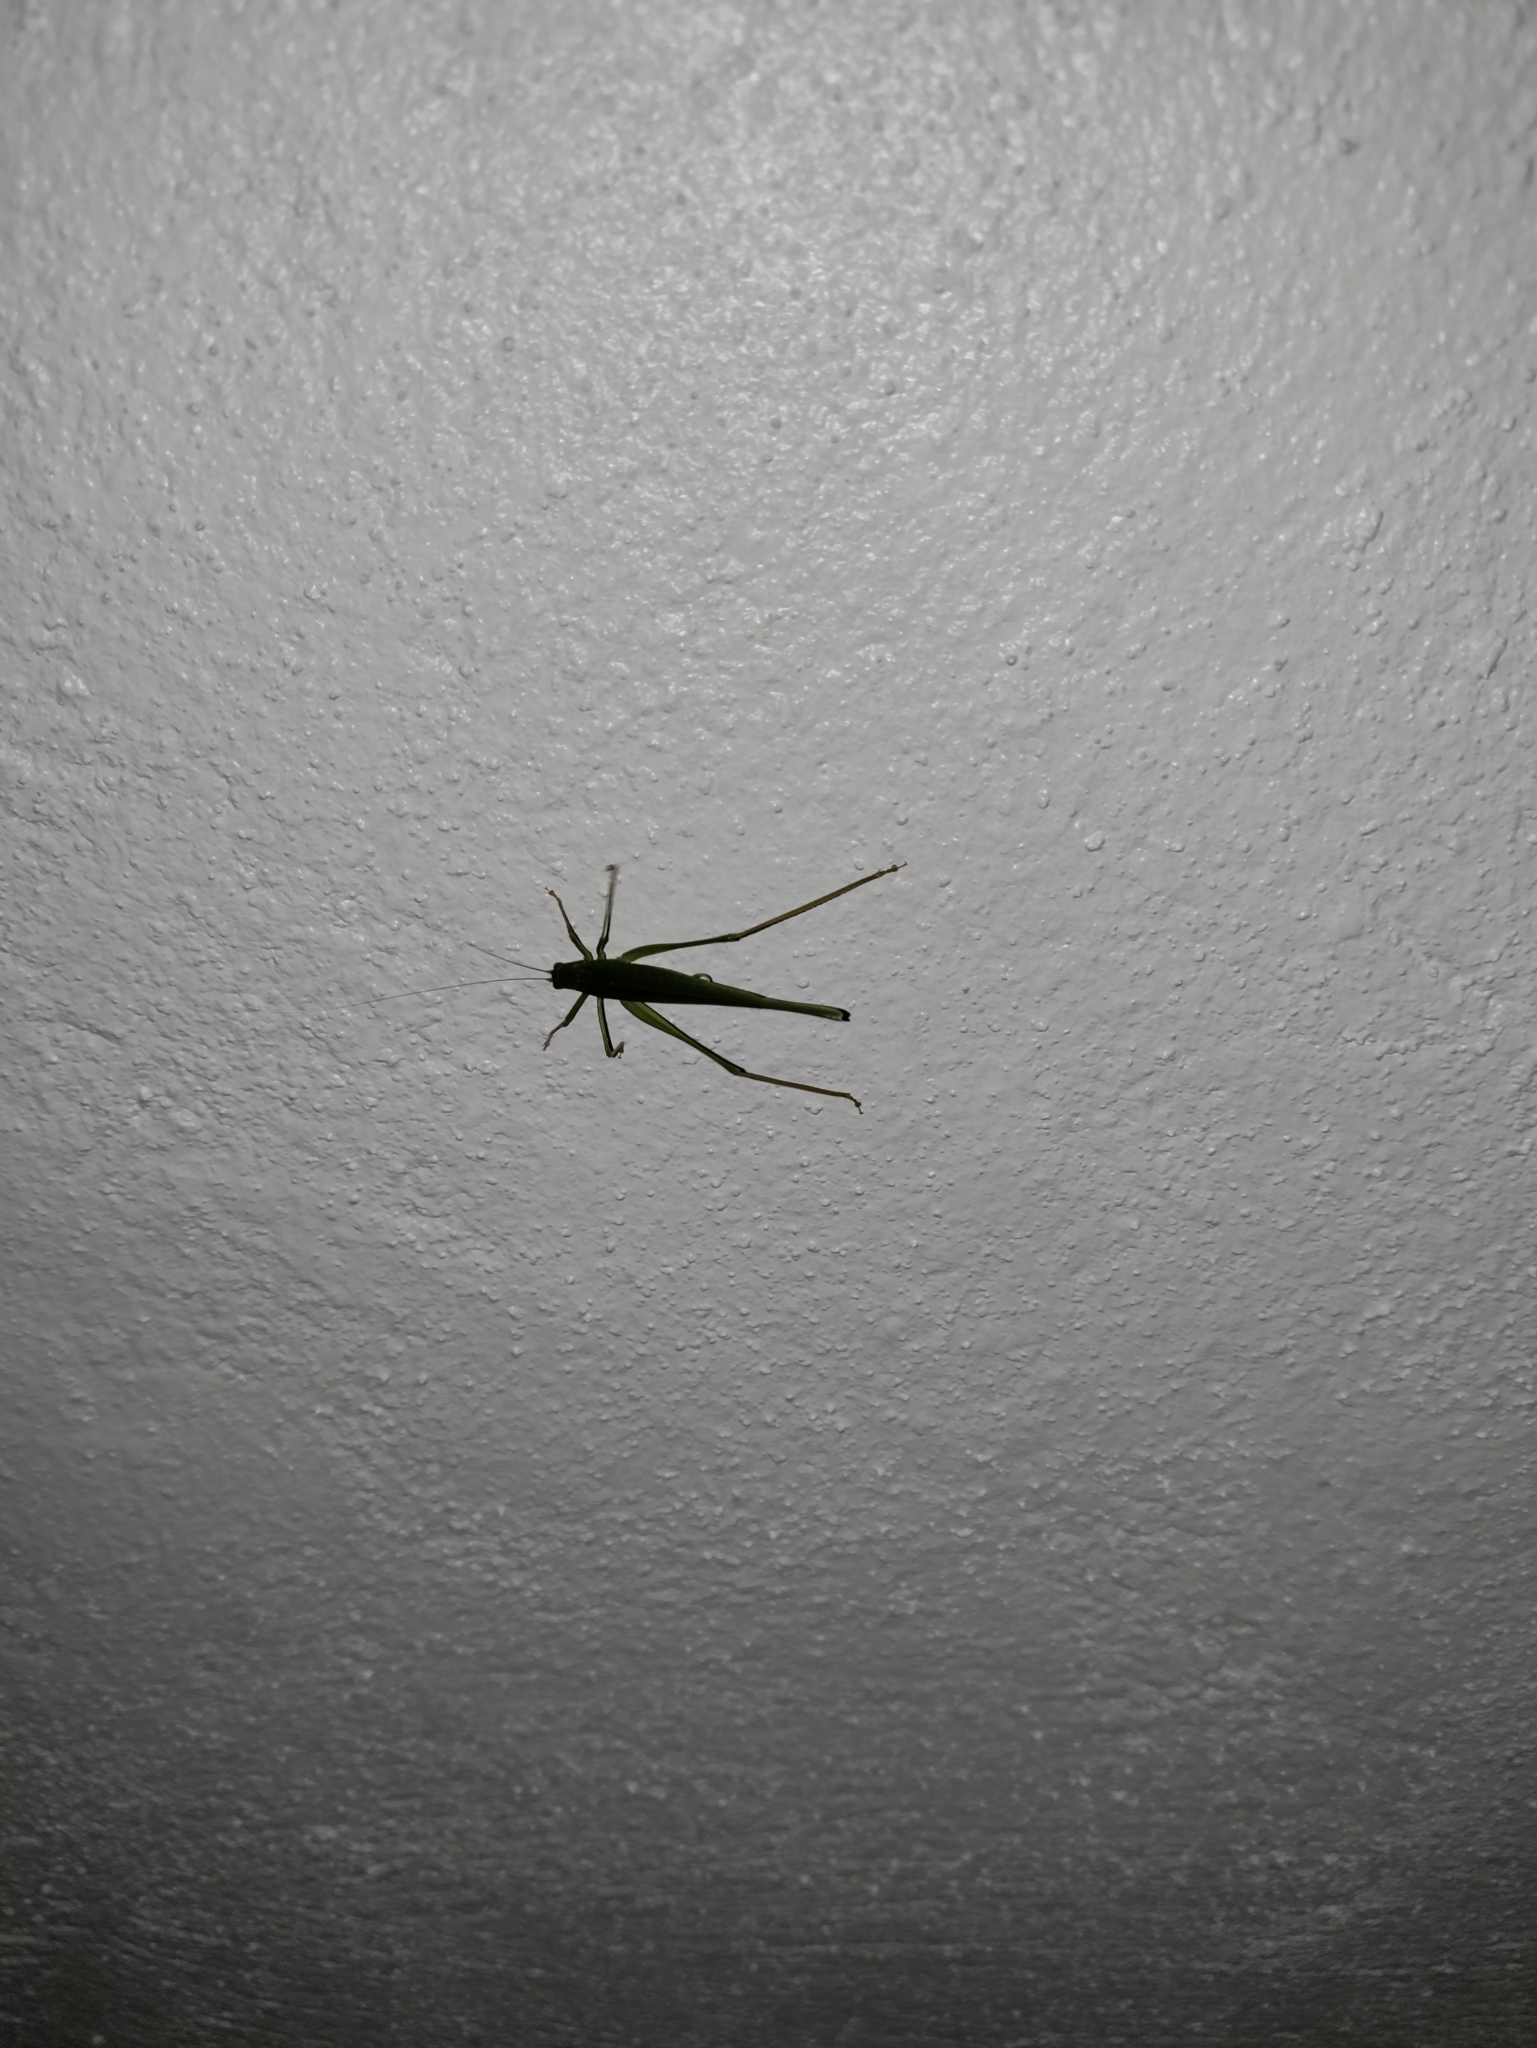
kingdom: Animalia
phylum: Arthropoda
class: Insecta
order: Orthoptera
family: Tettigoniidae
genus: Phaneroptera
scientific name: Phaneroptera nana
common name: Southern sickle bush-cricket
